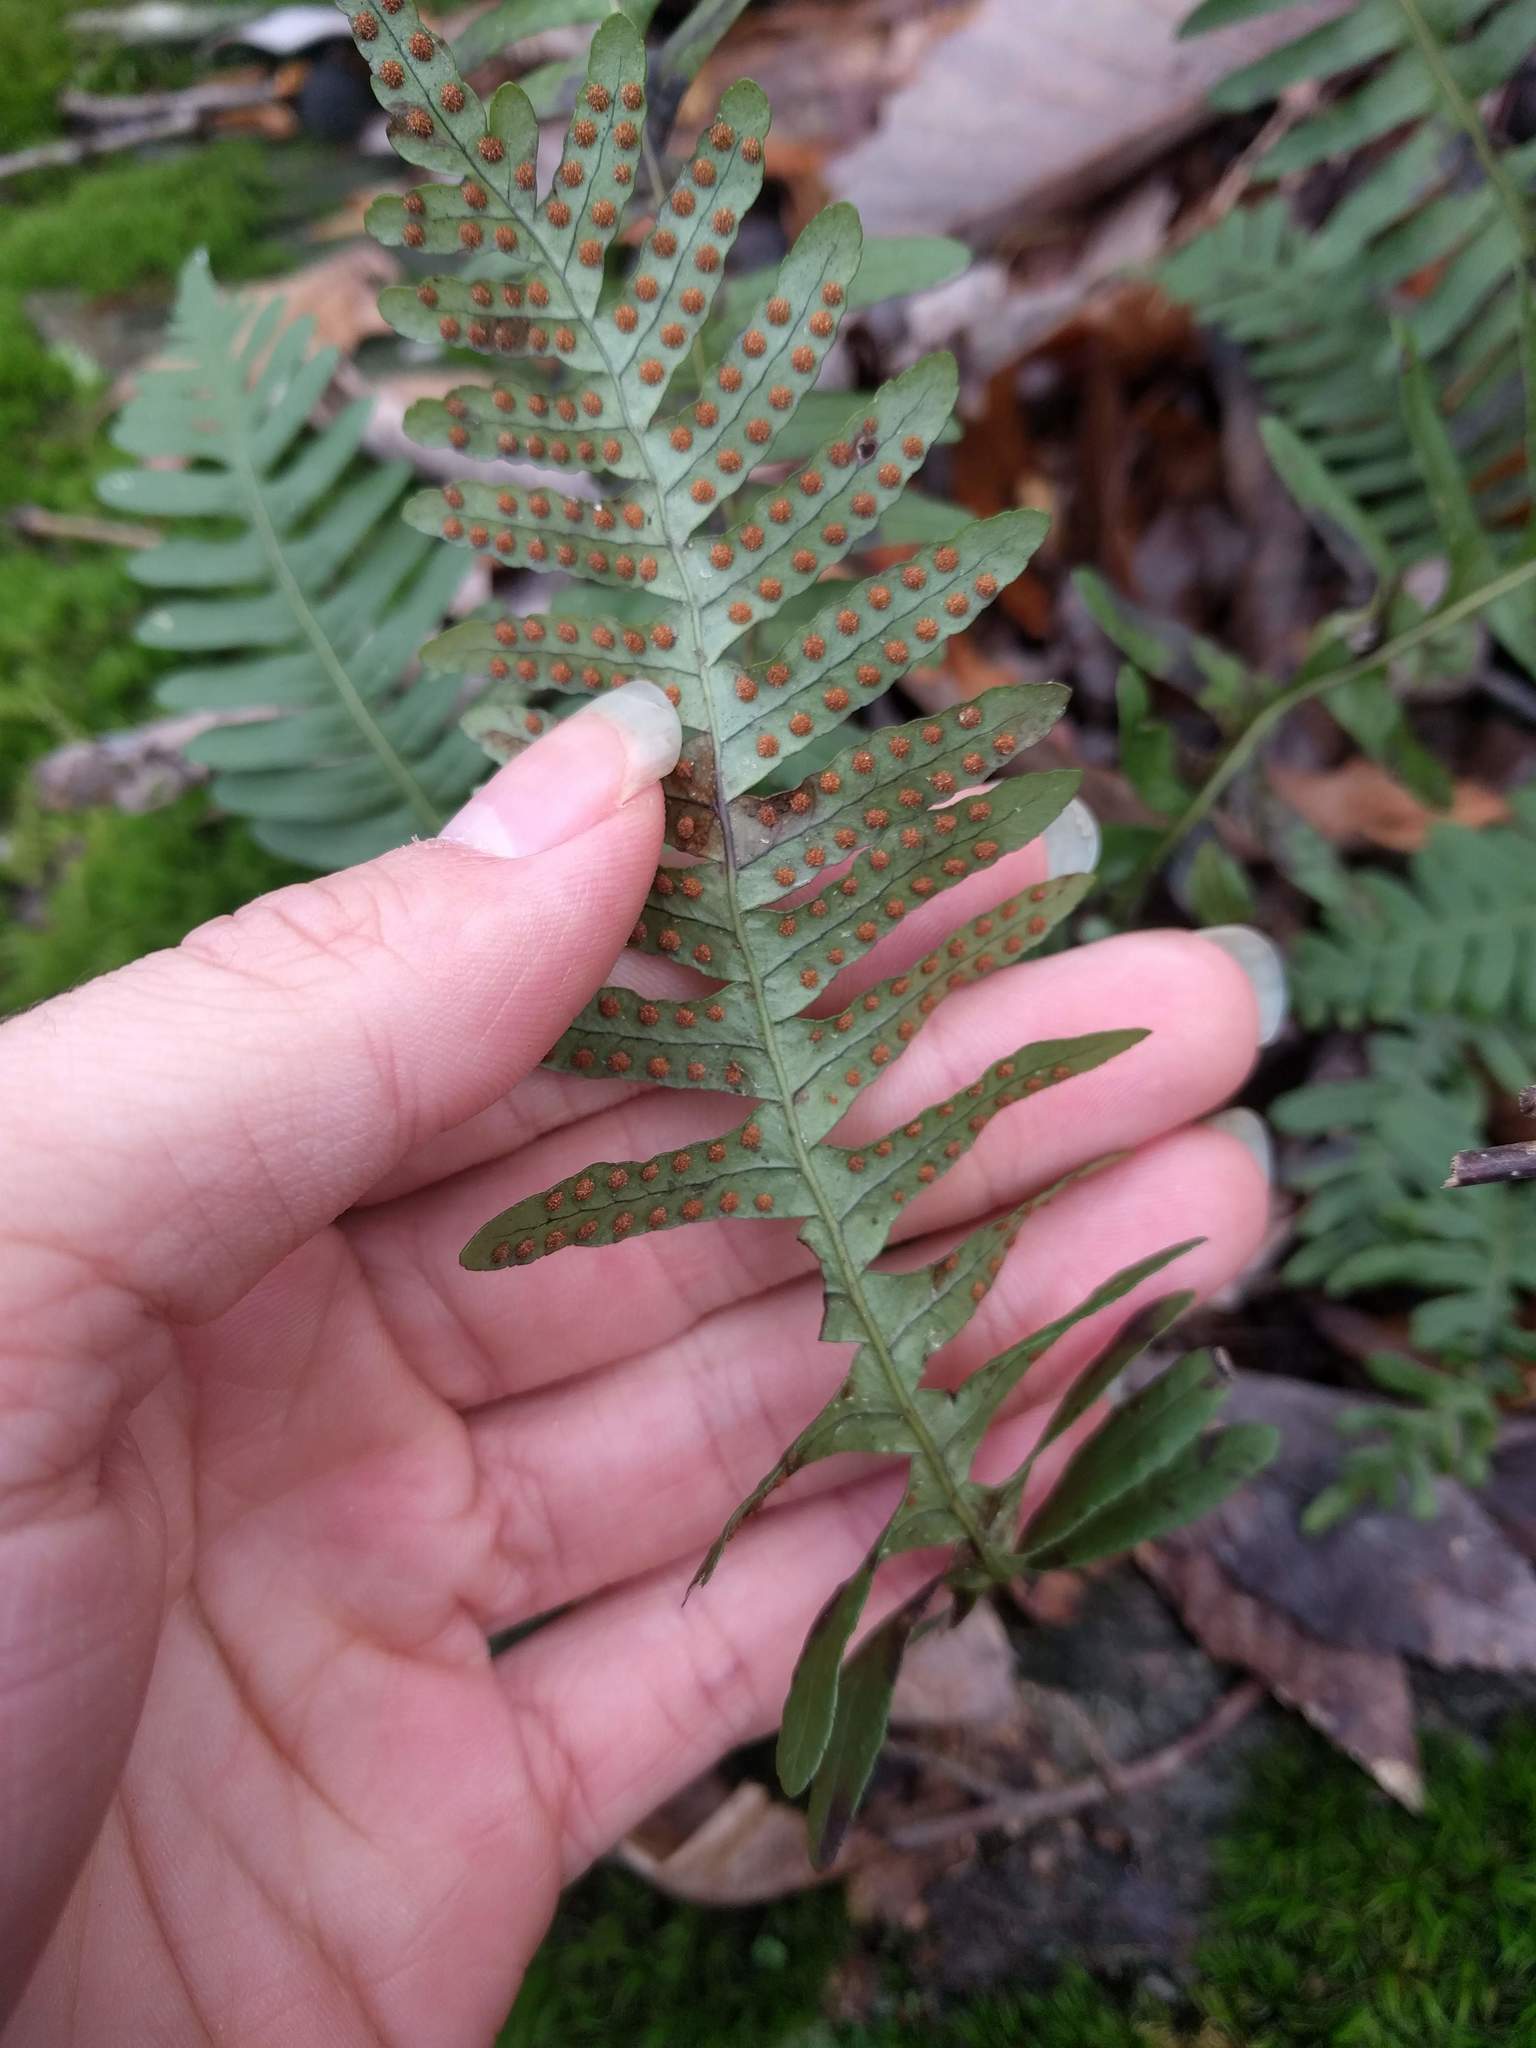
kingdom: Plantae
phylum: Tracheophyta
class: Polypodiopsida
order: Polypodiales
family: Polypodiaceae
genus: Polypodium
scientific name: Polypodium virginianum
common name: American wall fern
